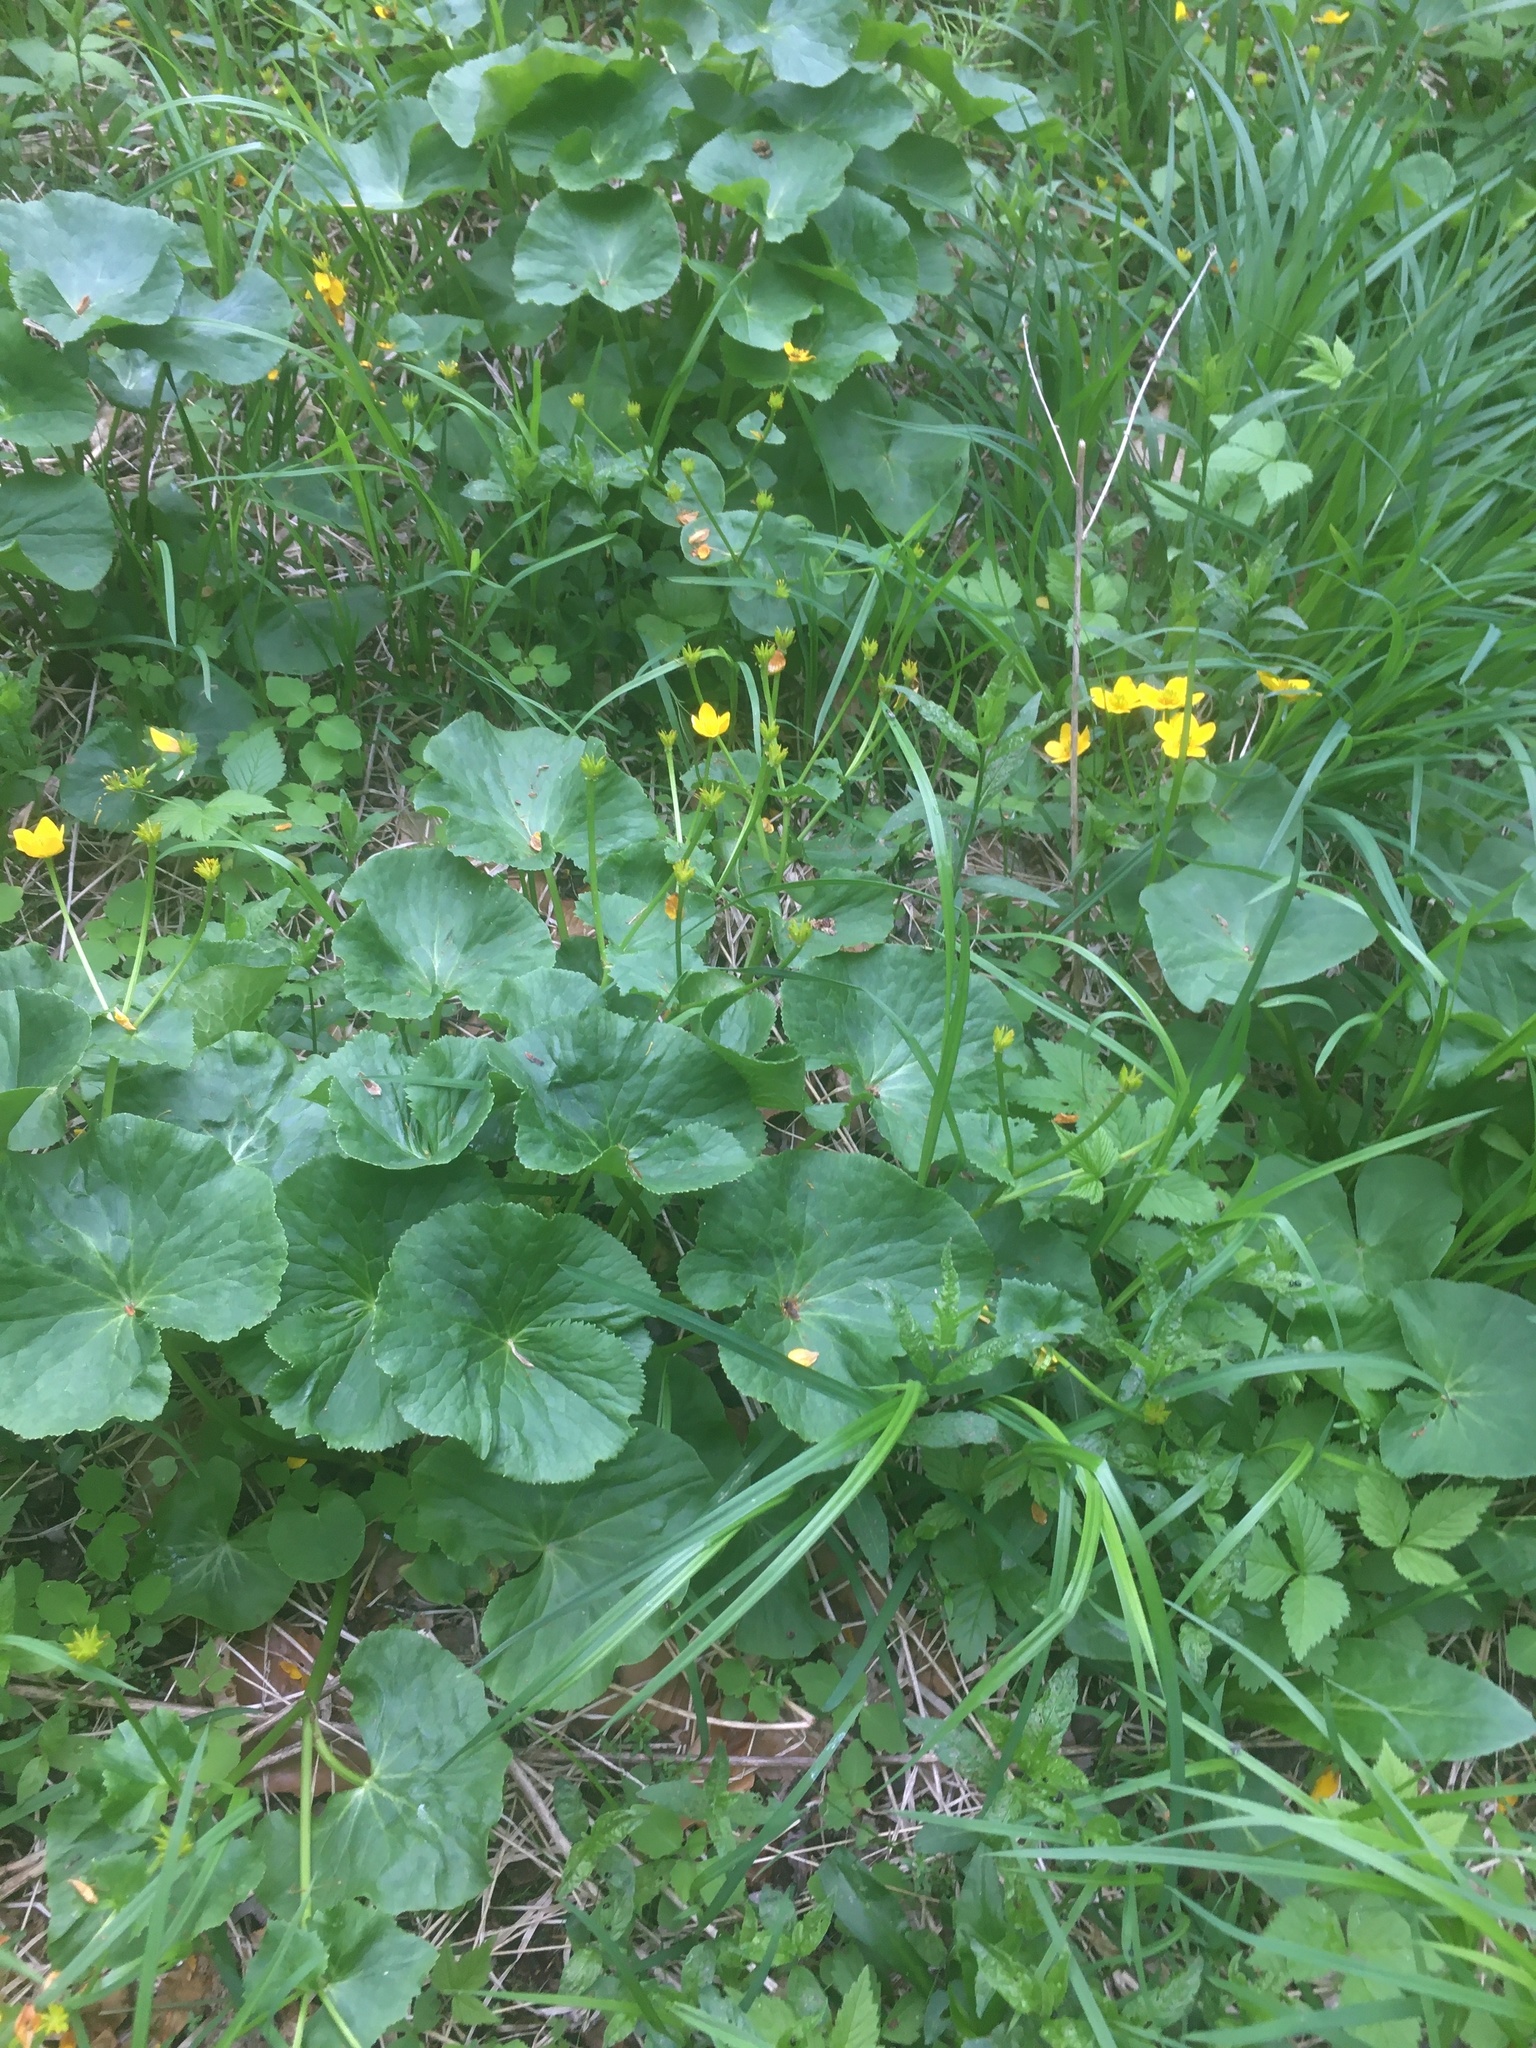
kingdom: Plantae
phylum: Tracheophyta
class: Magnoliopsida
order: Ranunculales
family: Ranunculaceae
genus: Caltha
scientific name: Caltha palustris
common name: Marsh marigold
